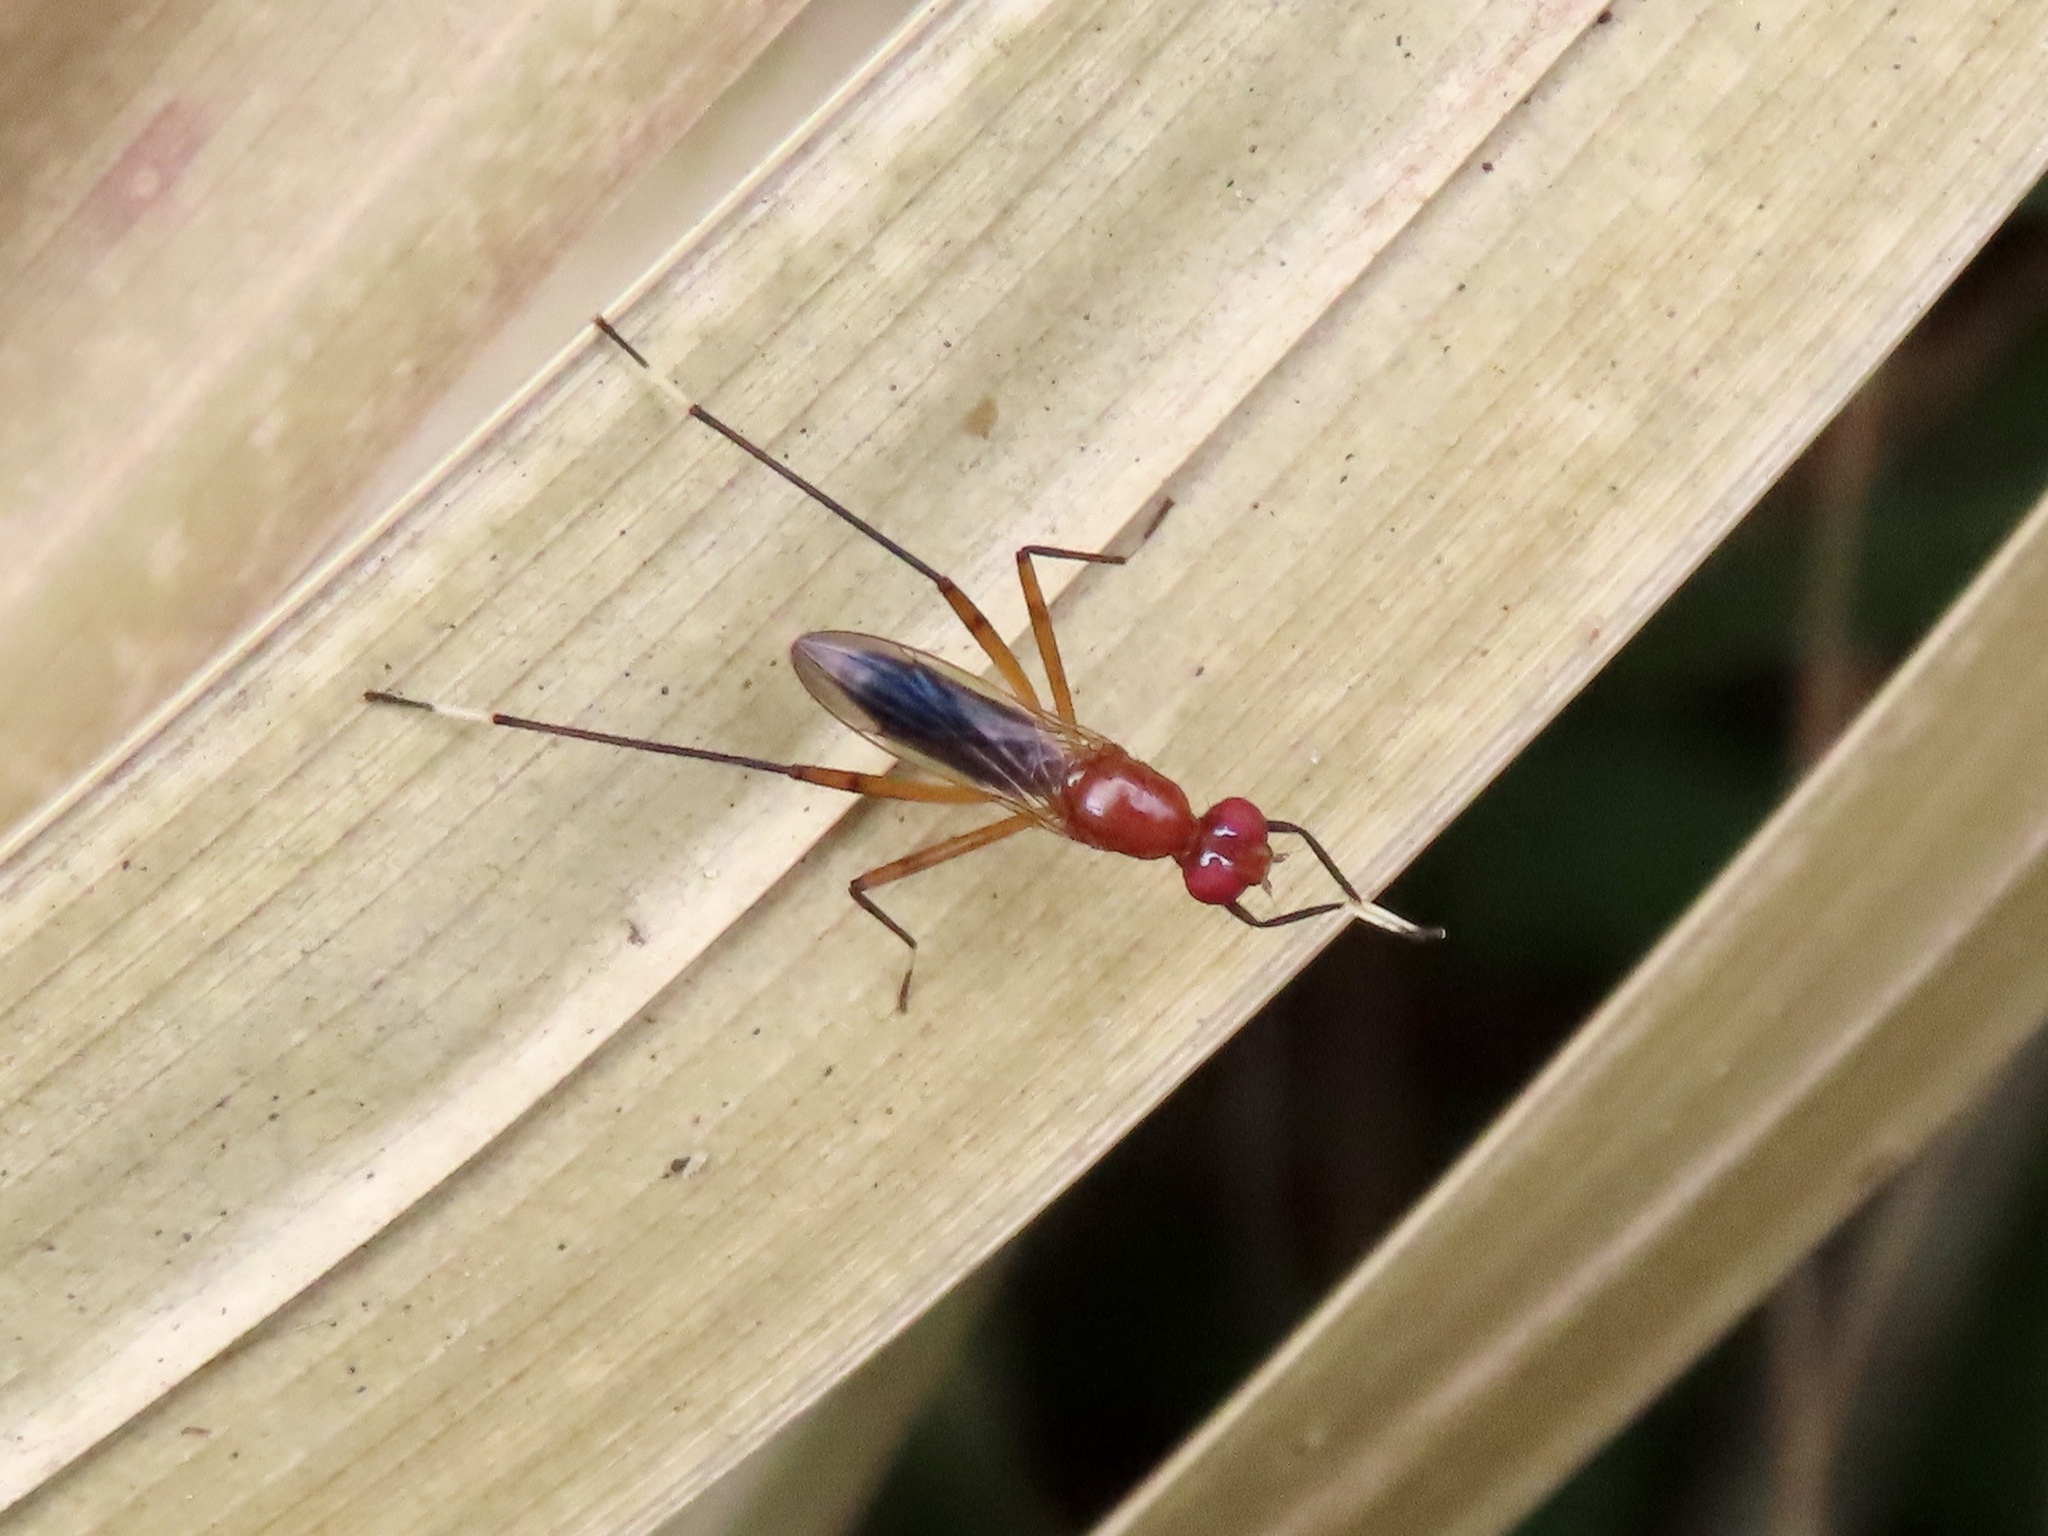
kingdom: Animalia
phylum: Arthropoda
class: Insecta
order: Diptera
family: Micropezidae
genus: Grallipeza
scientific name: Grallipeza nebulosa
